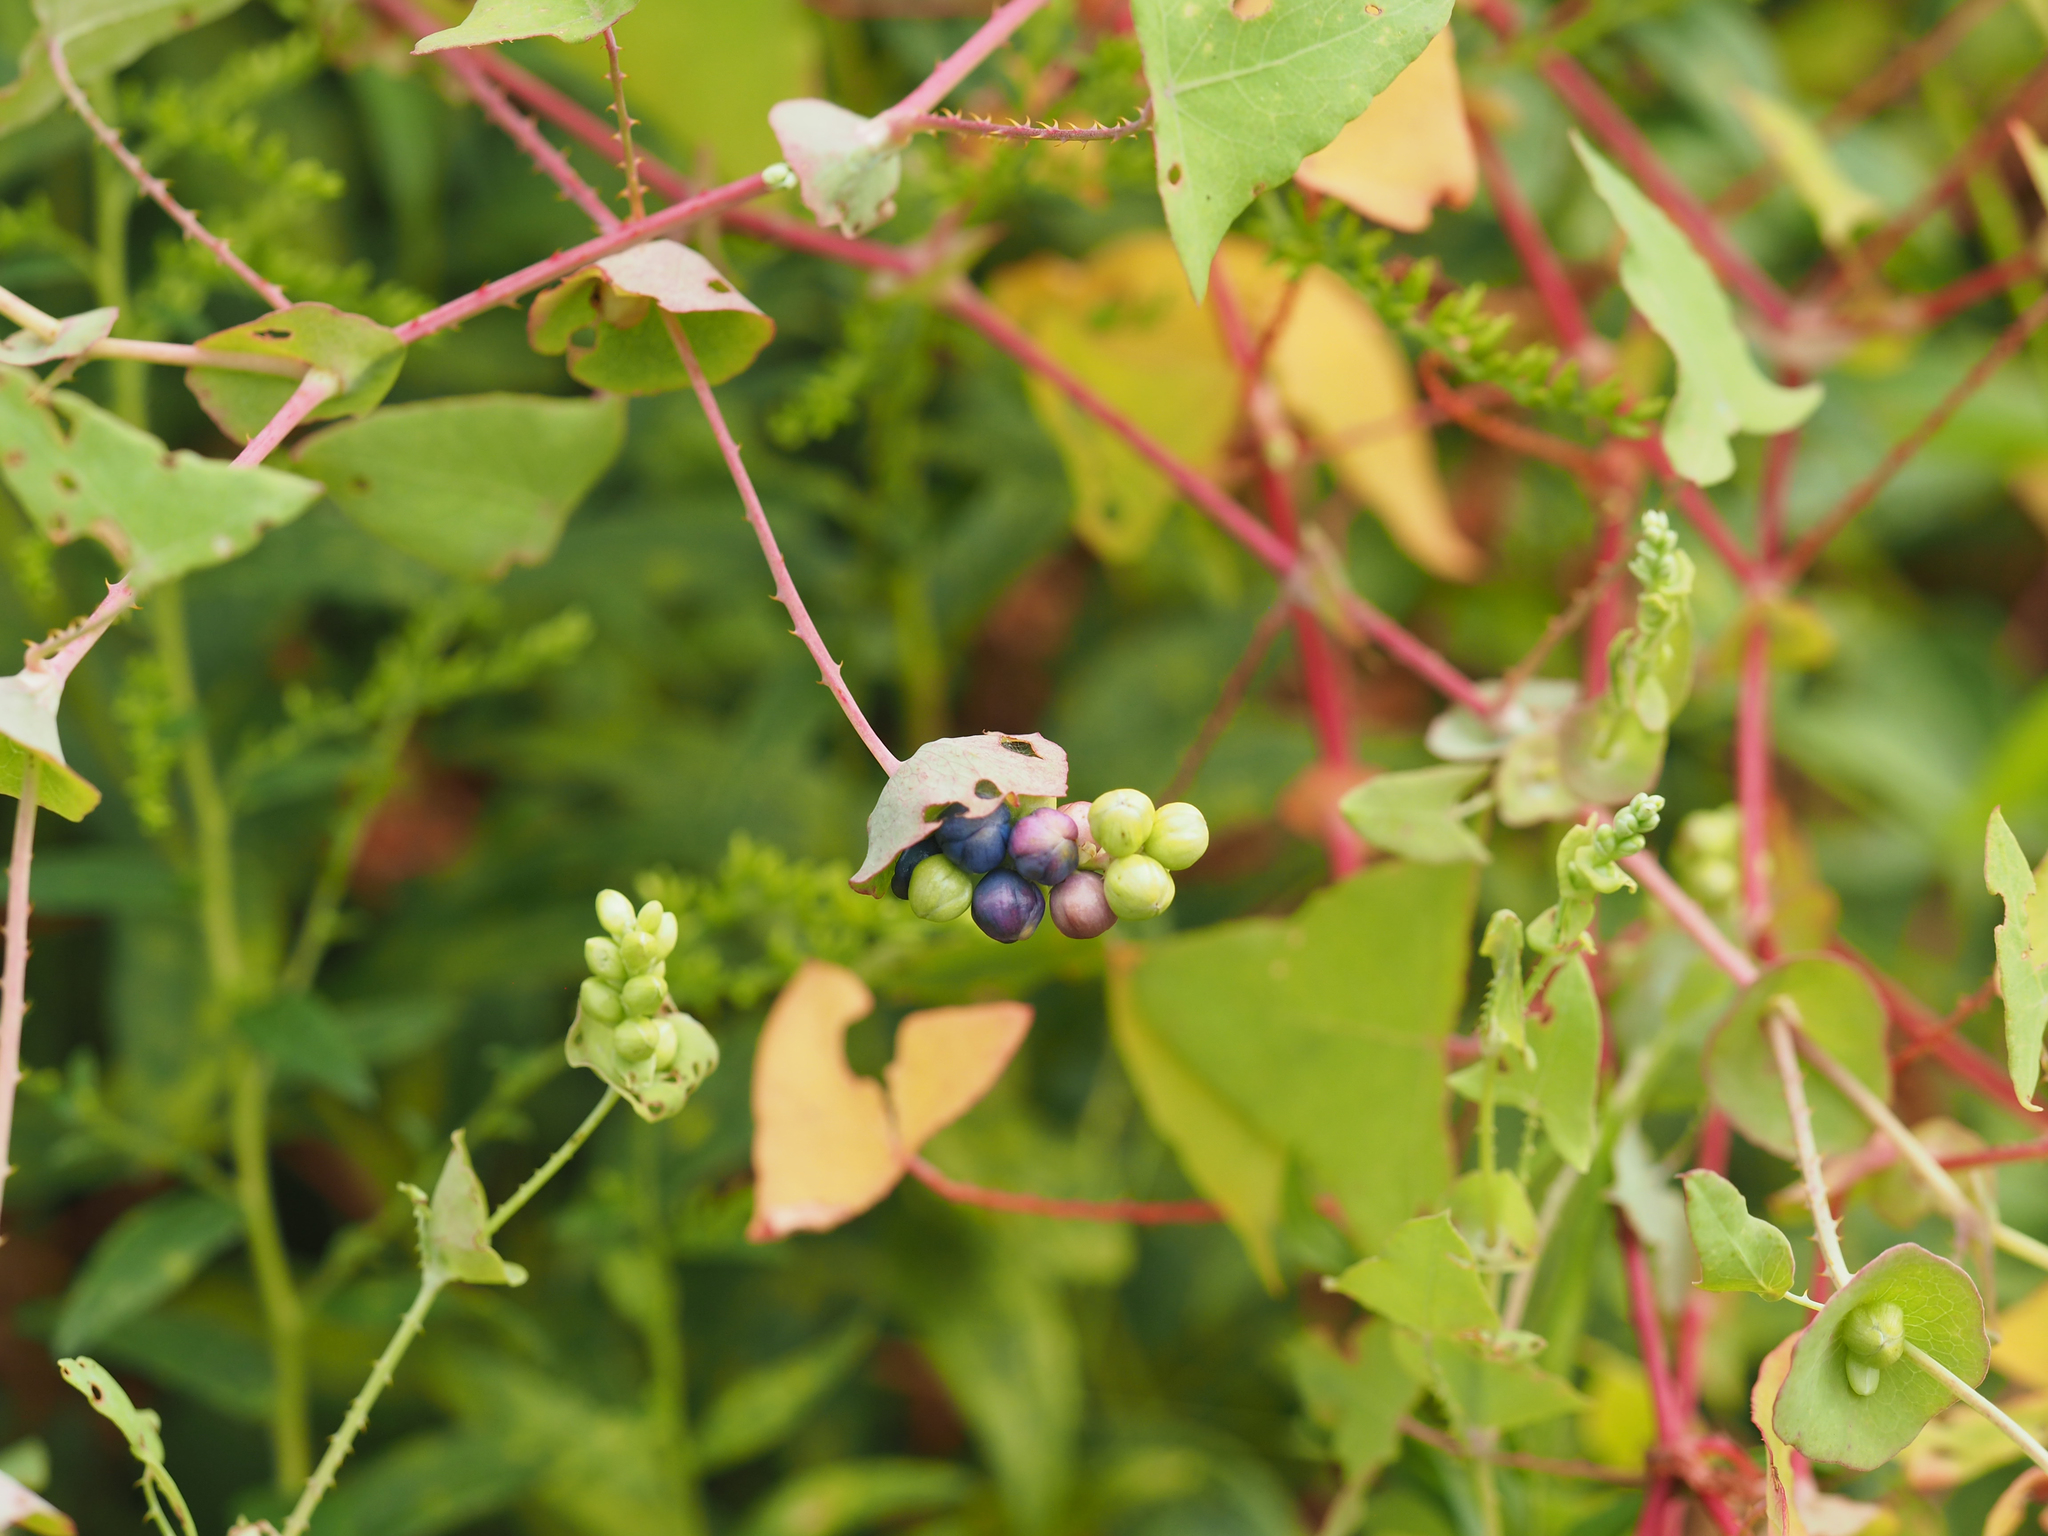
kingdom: Plantae
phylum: Tracheophyta
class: Magnoliopsida
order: Caryophyllales
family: Polygonaceae
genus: Persicaria
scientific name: Persicaria perfoliata
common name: Asiatic tearthumb
